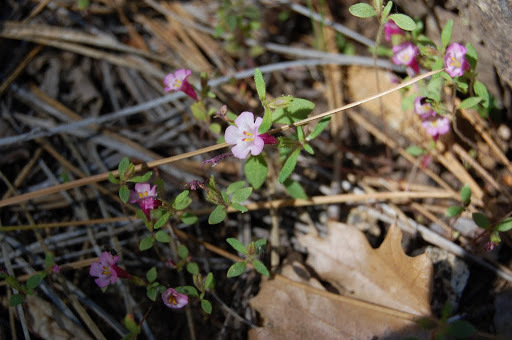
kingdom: Plantae
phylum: Tracheophyta
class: Magnoliopsida
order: Lamiales
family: Phrymaceae
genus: Diplacus
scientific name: Diplacus torreyi
